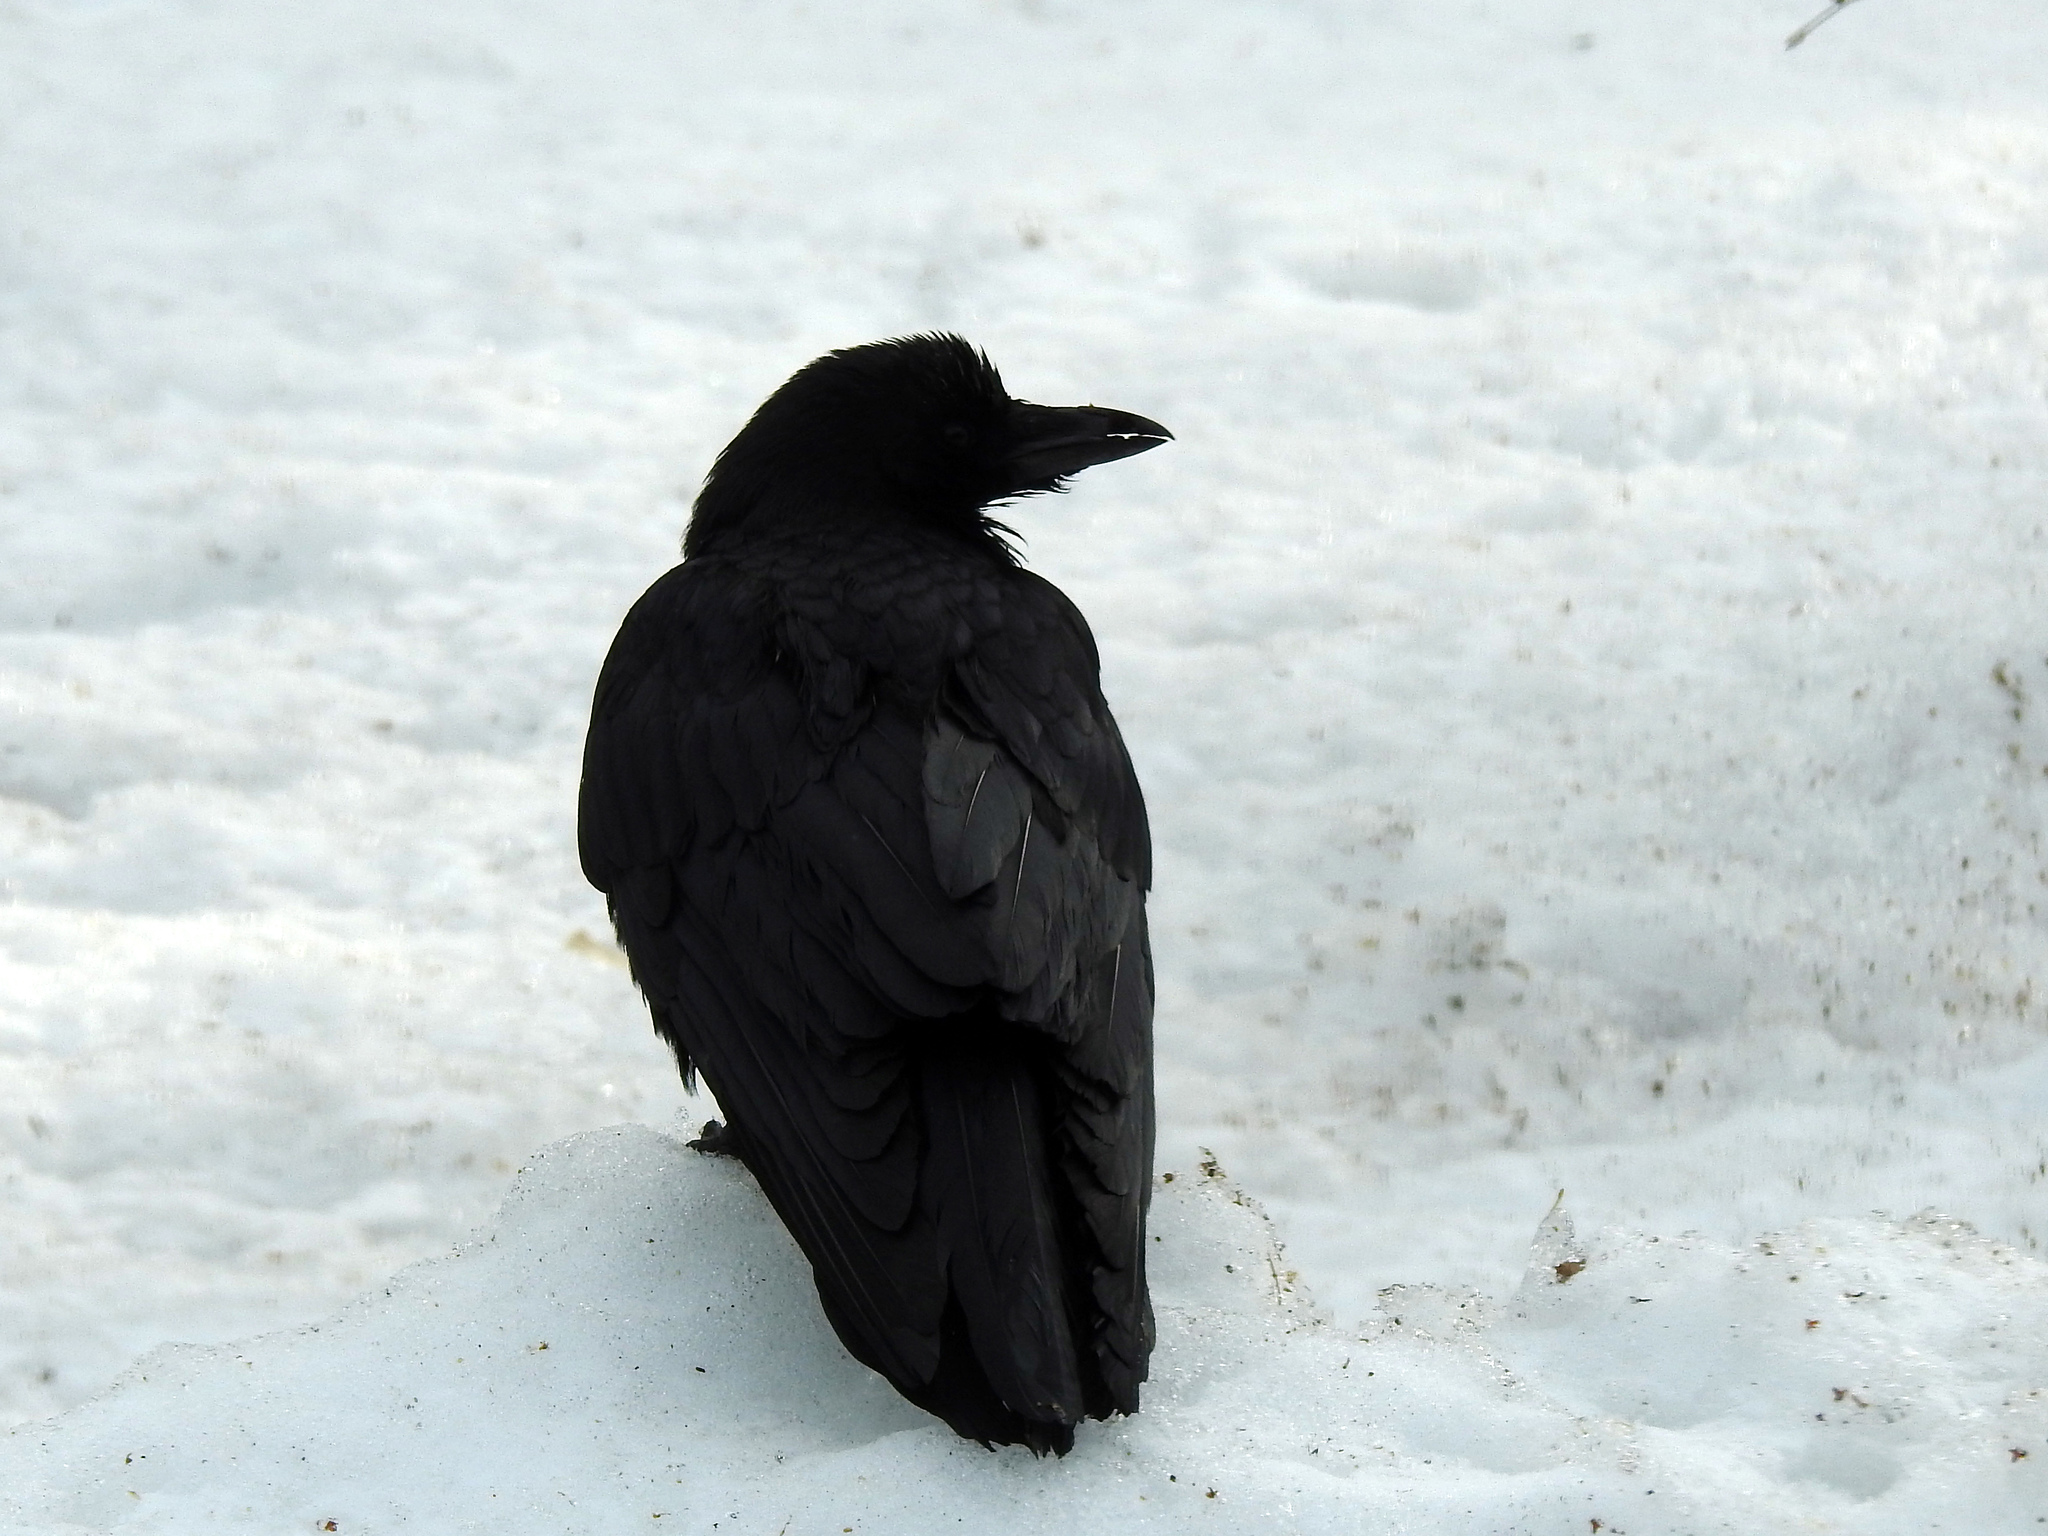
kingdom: Animalia
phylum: Chordata
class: Aves
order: Passeriformes
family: Corvidae
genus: Corvus
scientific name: Corvus corax
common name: Common raven
